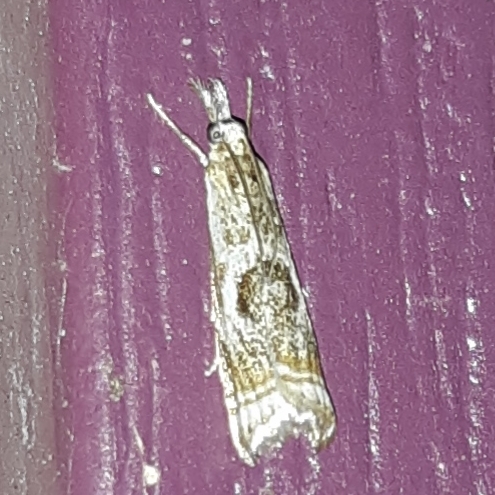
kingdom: Animalia
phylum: Arthropoda
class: Insecta
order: Lepidoptera
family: Crambidae
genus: Microcrambus
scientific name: Microcrambus elegans
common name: Elegant grass-veneer
